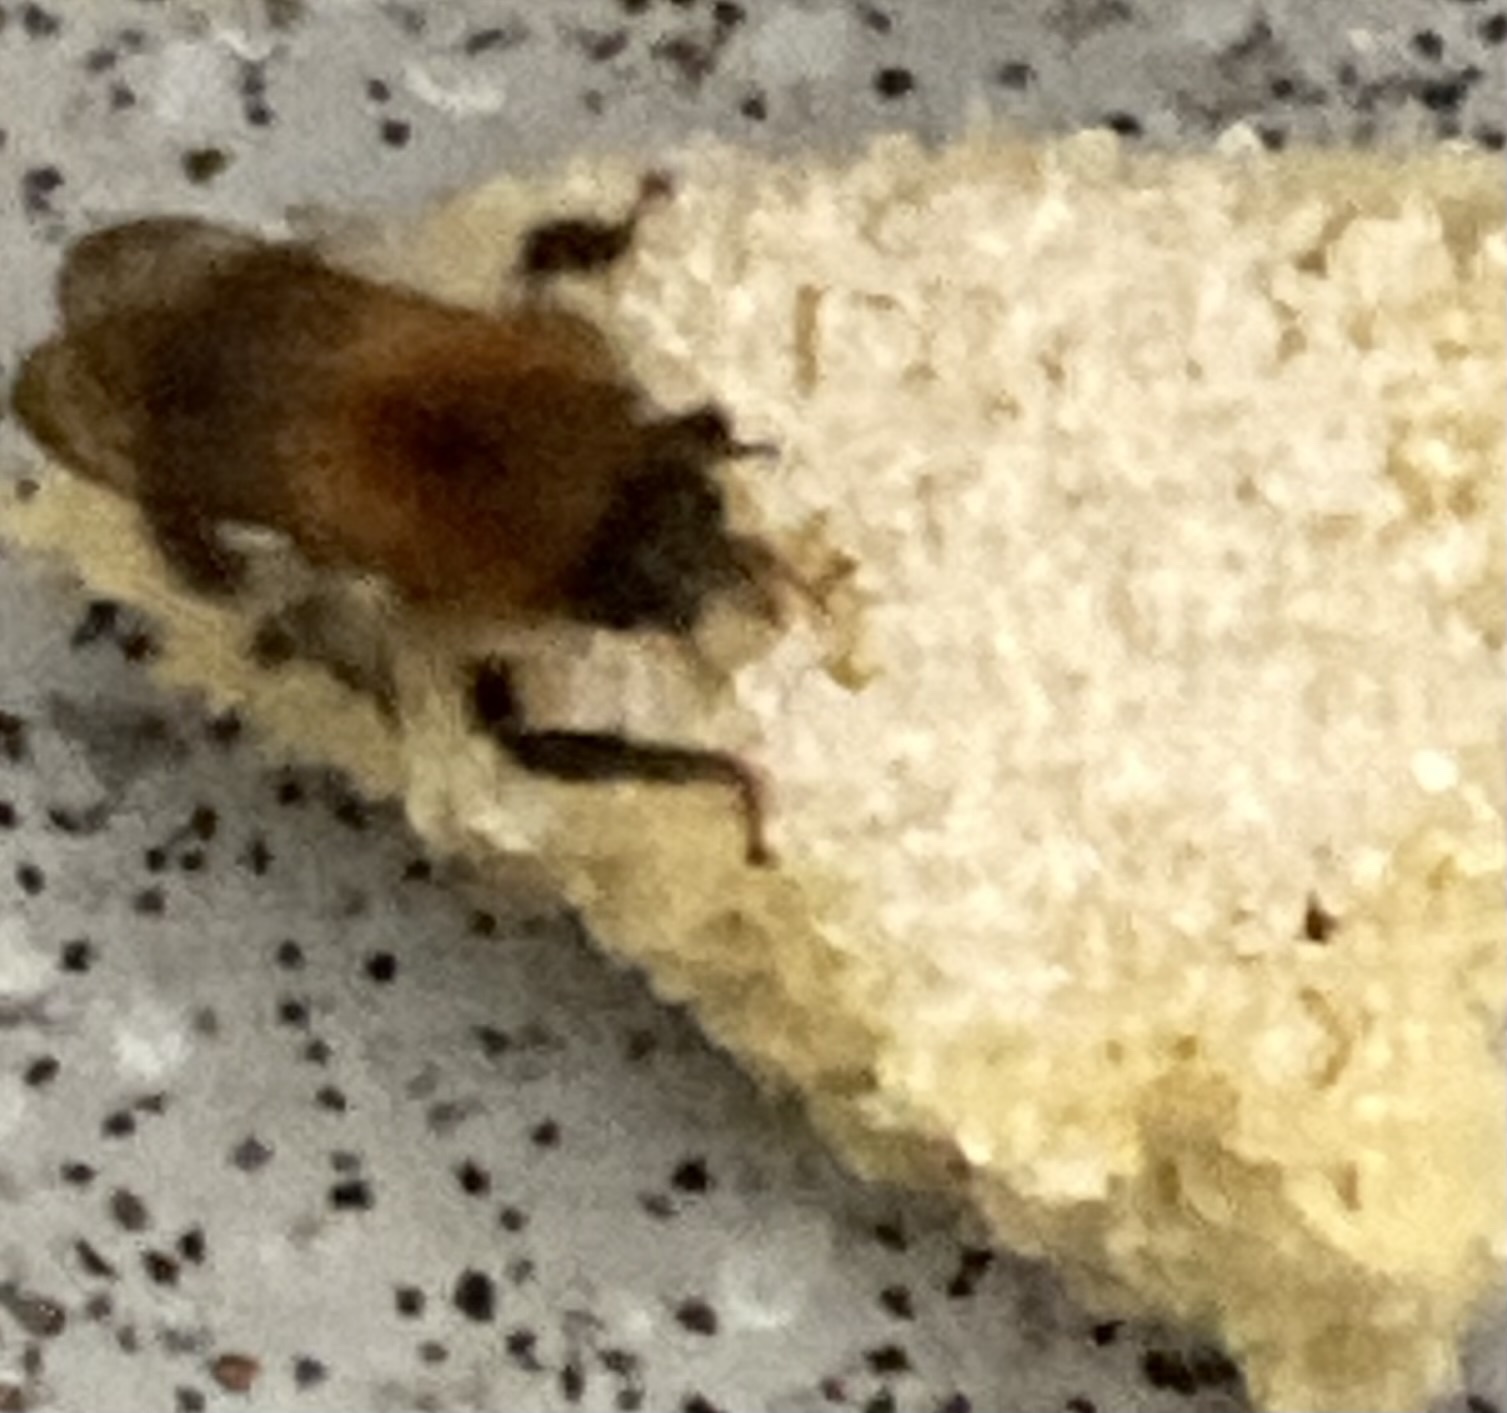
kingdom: Animalia
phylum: Arthropoda
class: Insecta
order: Hymenoptera
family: Apidae
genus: Bombus
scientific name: Bombus pascuorum
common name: Common carder bee
